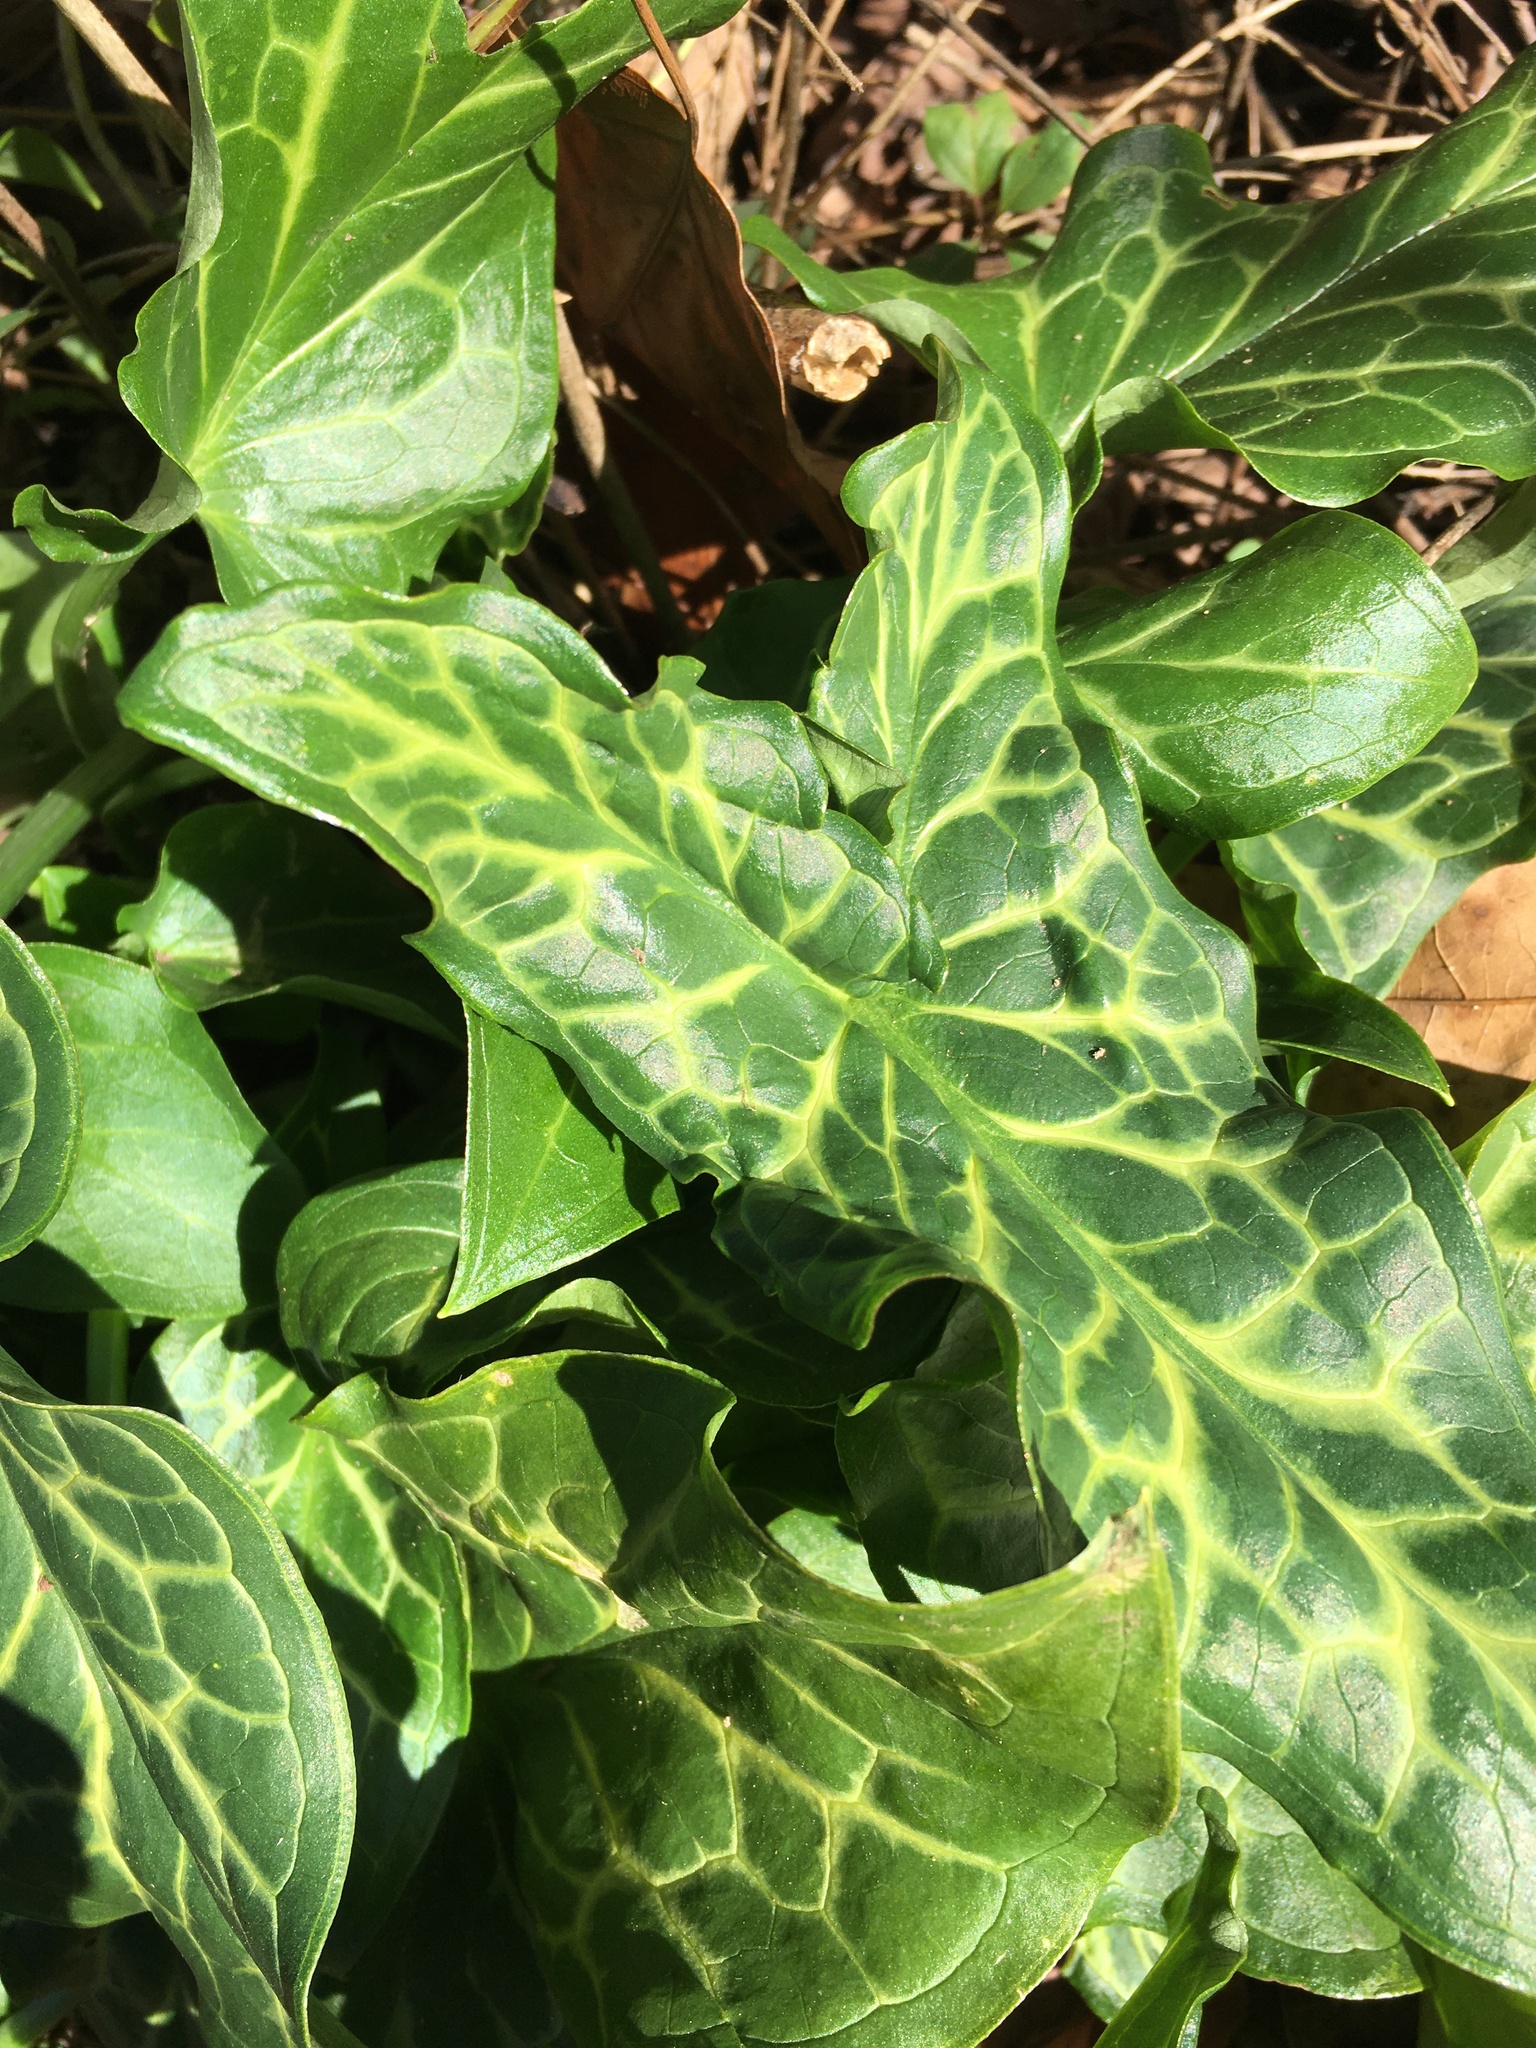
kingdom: Plantae
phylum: Tracheophyta
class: Liliopsida
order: Alismatales
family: Araceae
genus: Arum
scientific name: Arum italicum
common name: Italian lords-and-ladies
